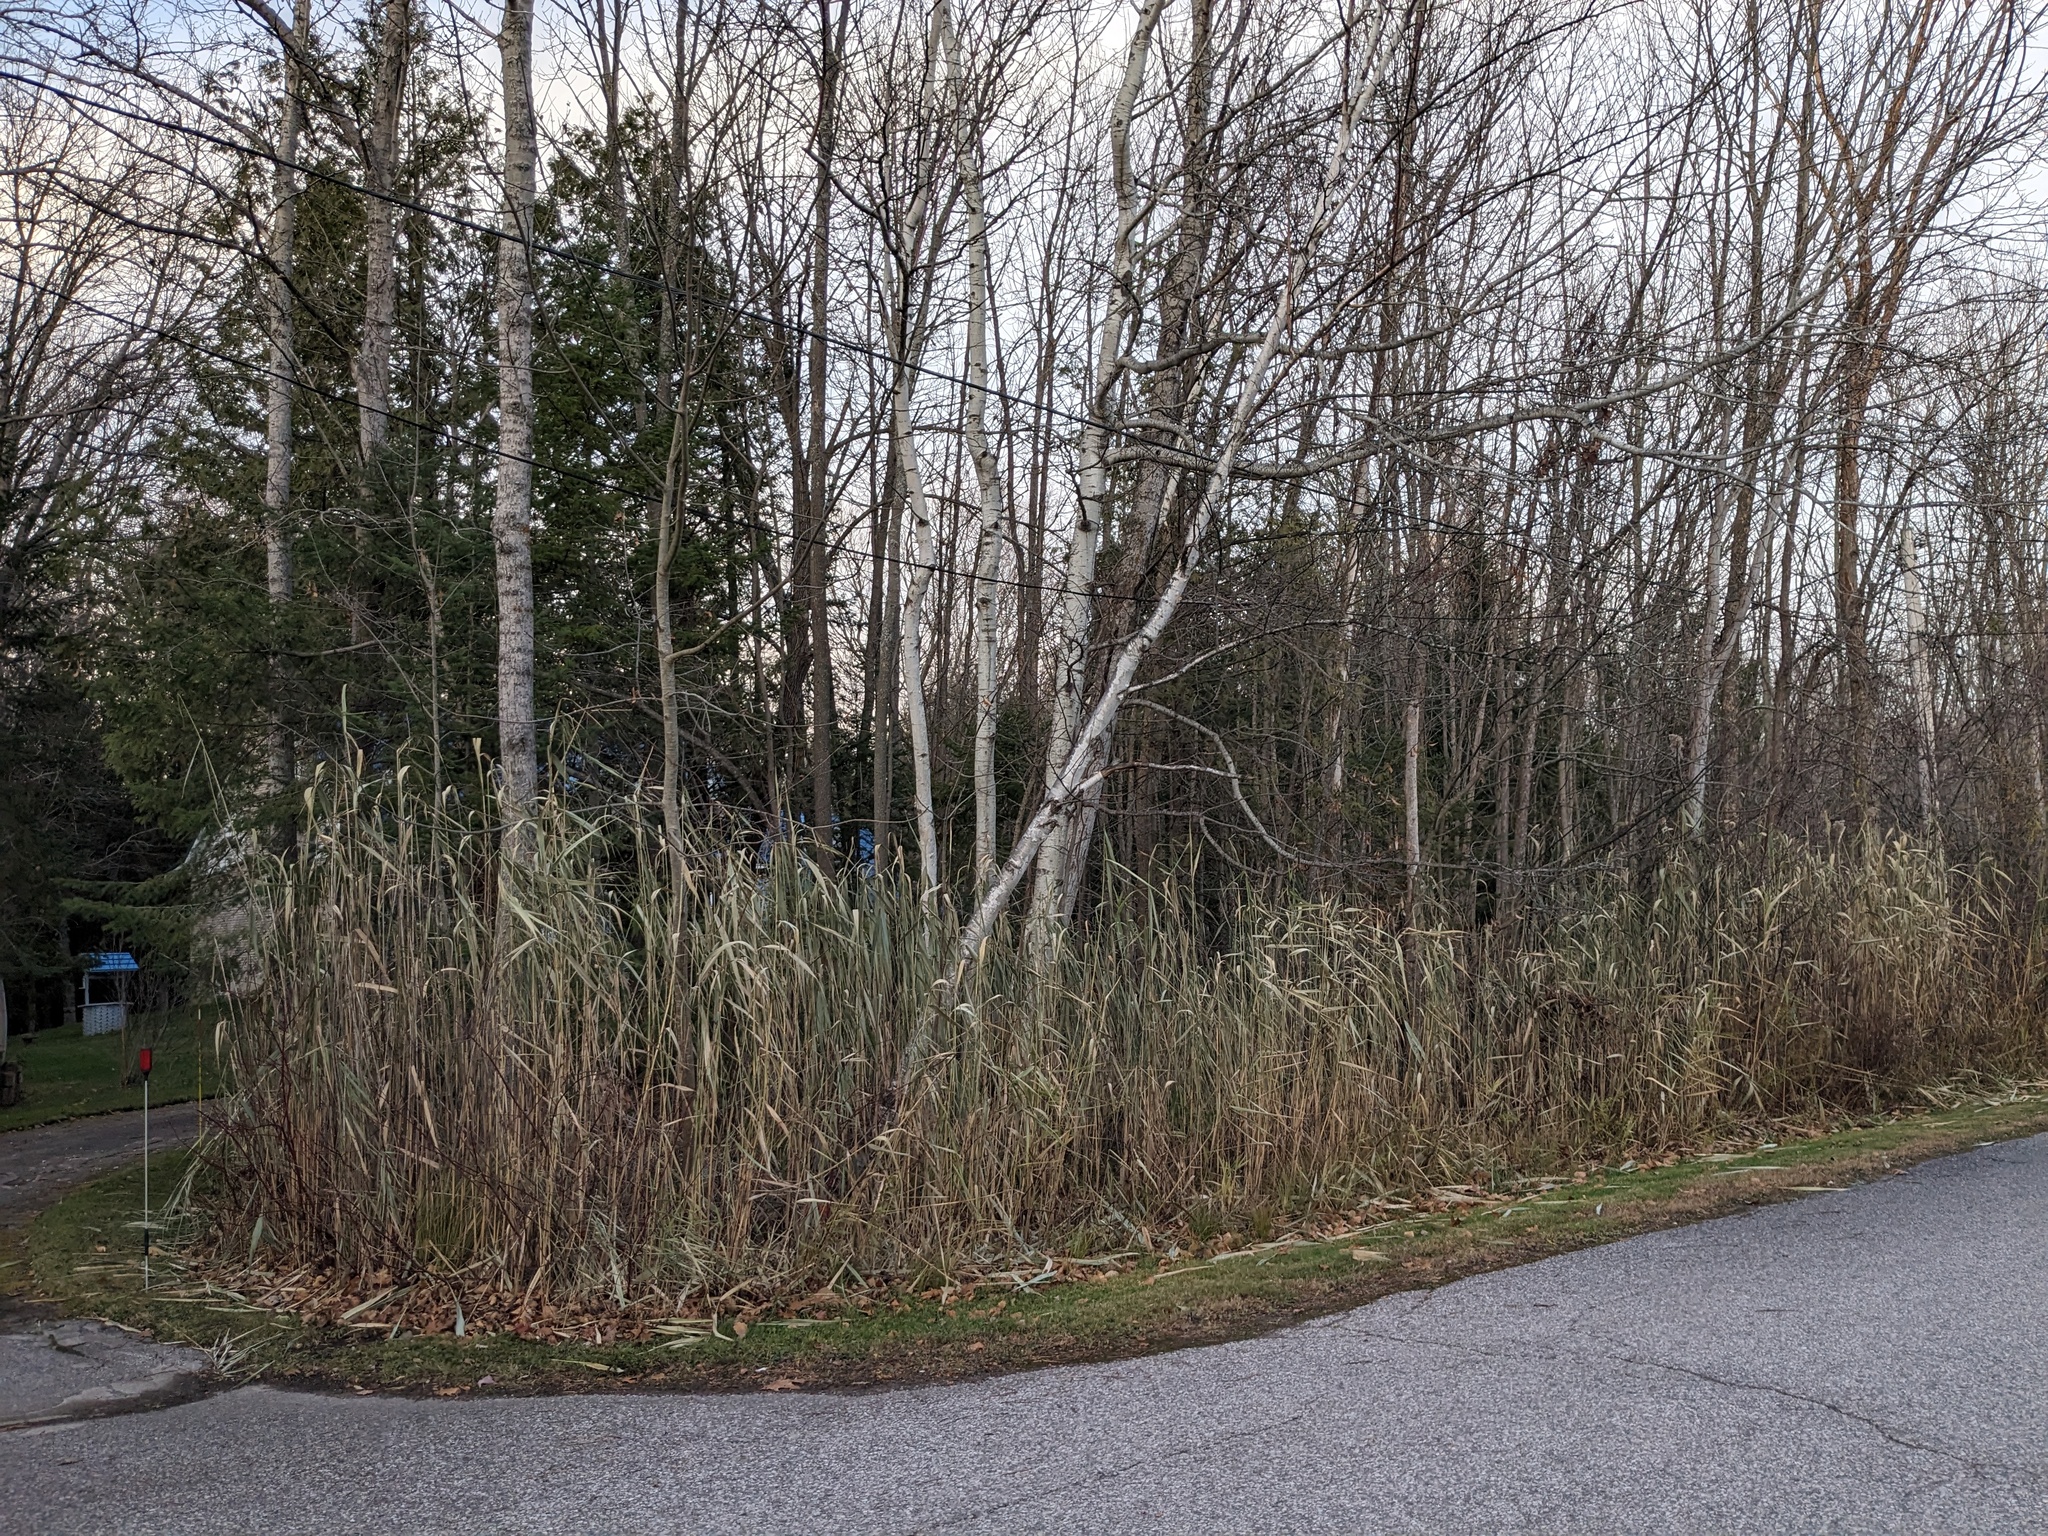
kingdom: Plantae
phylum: Tracheophyta
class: Liliopsida
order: Poales
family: Poaceae
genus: Phragmites
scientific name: Phragmites australis
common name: Common reed
